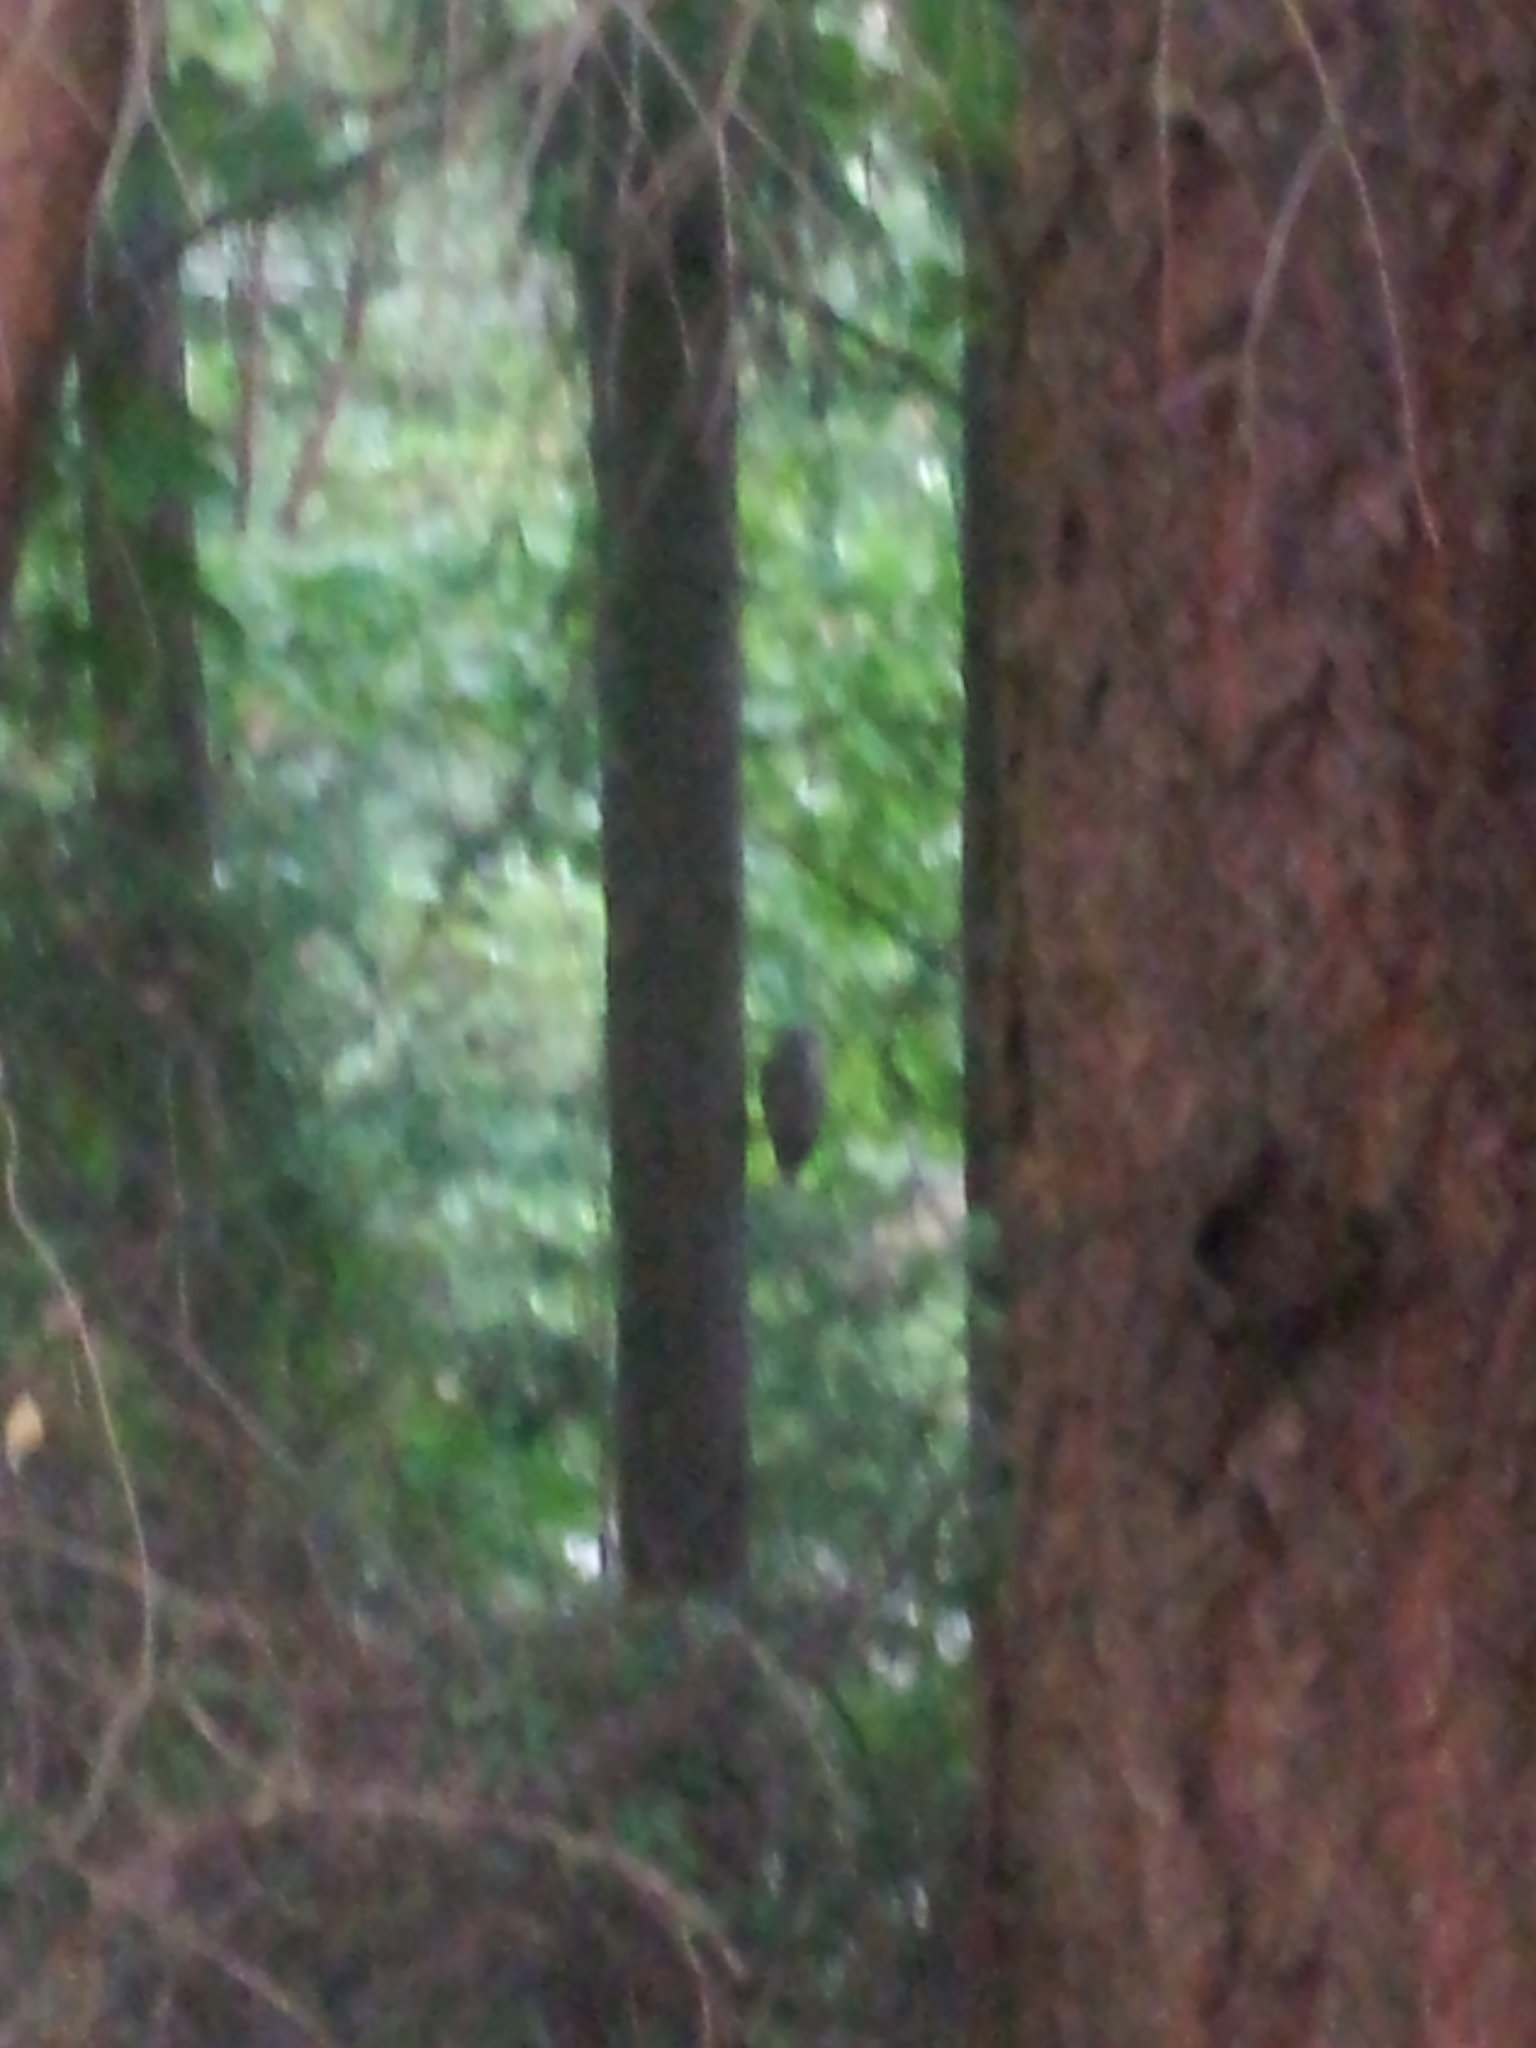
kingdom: Animalia
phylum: Chordata
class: Aves
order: Strigiformes
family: Strigidae
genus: Strix
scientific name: Strix varia
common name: Barred owl
